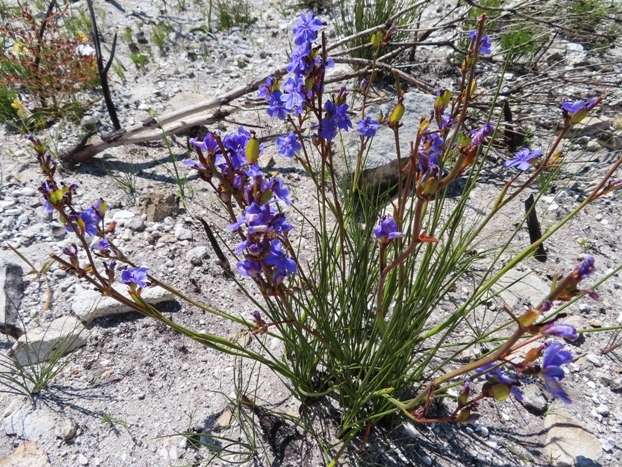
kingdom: Plantae
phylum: Tracheophyta
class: Liliopsida
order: Asparagales
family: Iridaceae
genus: Aristea
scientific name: Aristea juncifolia
